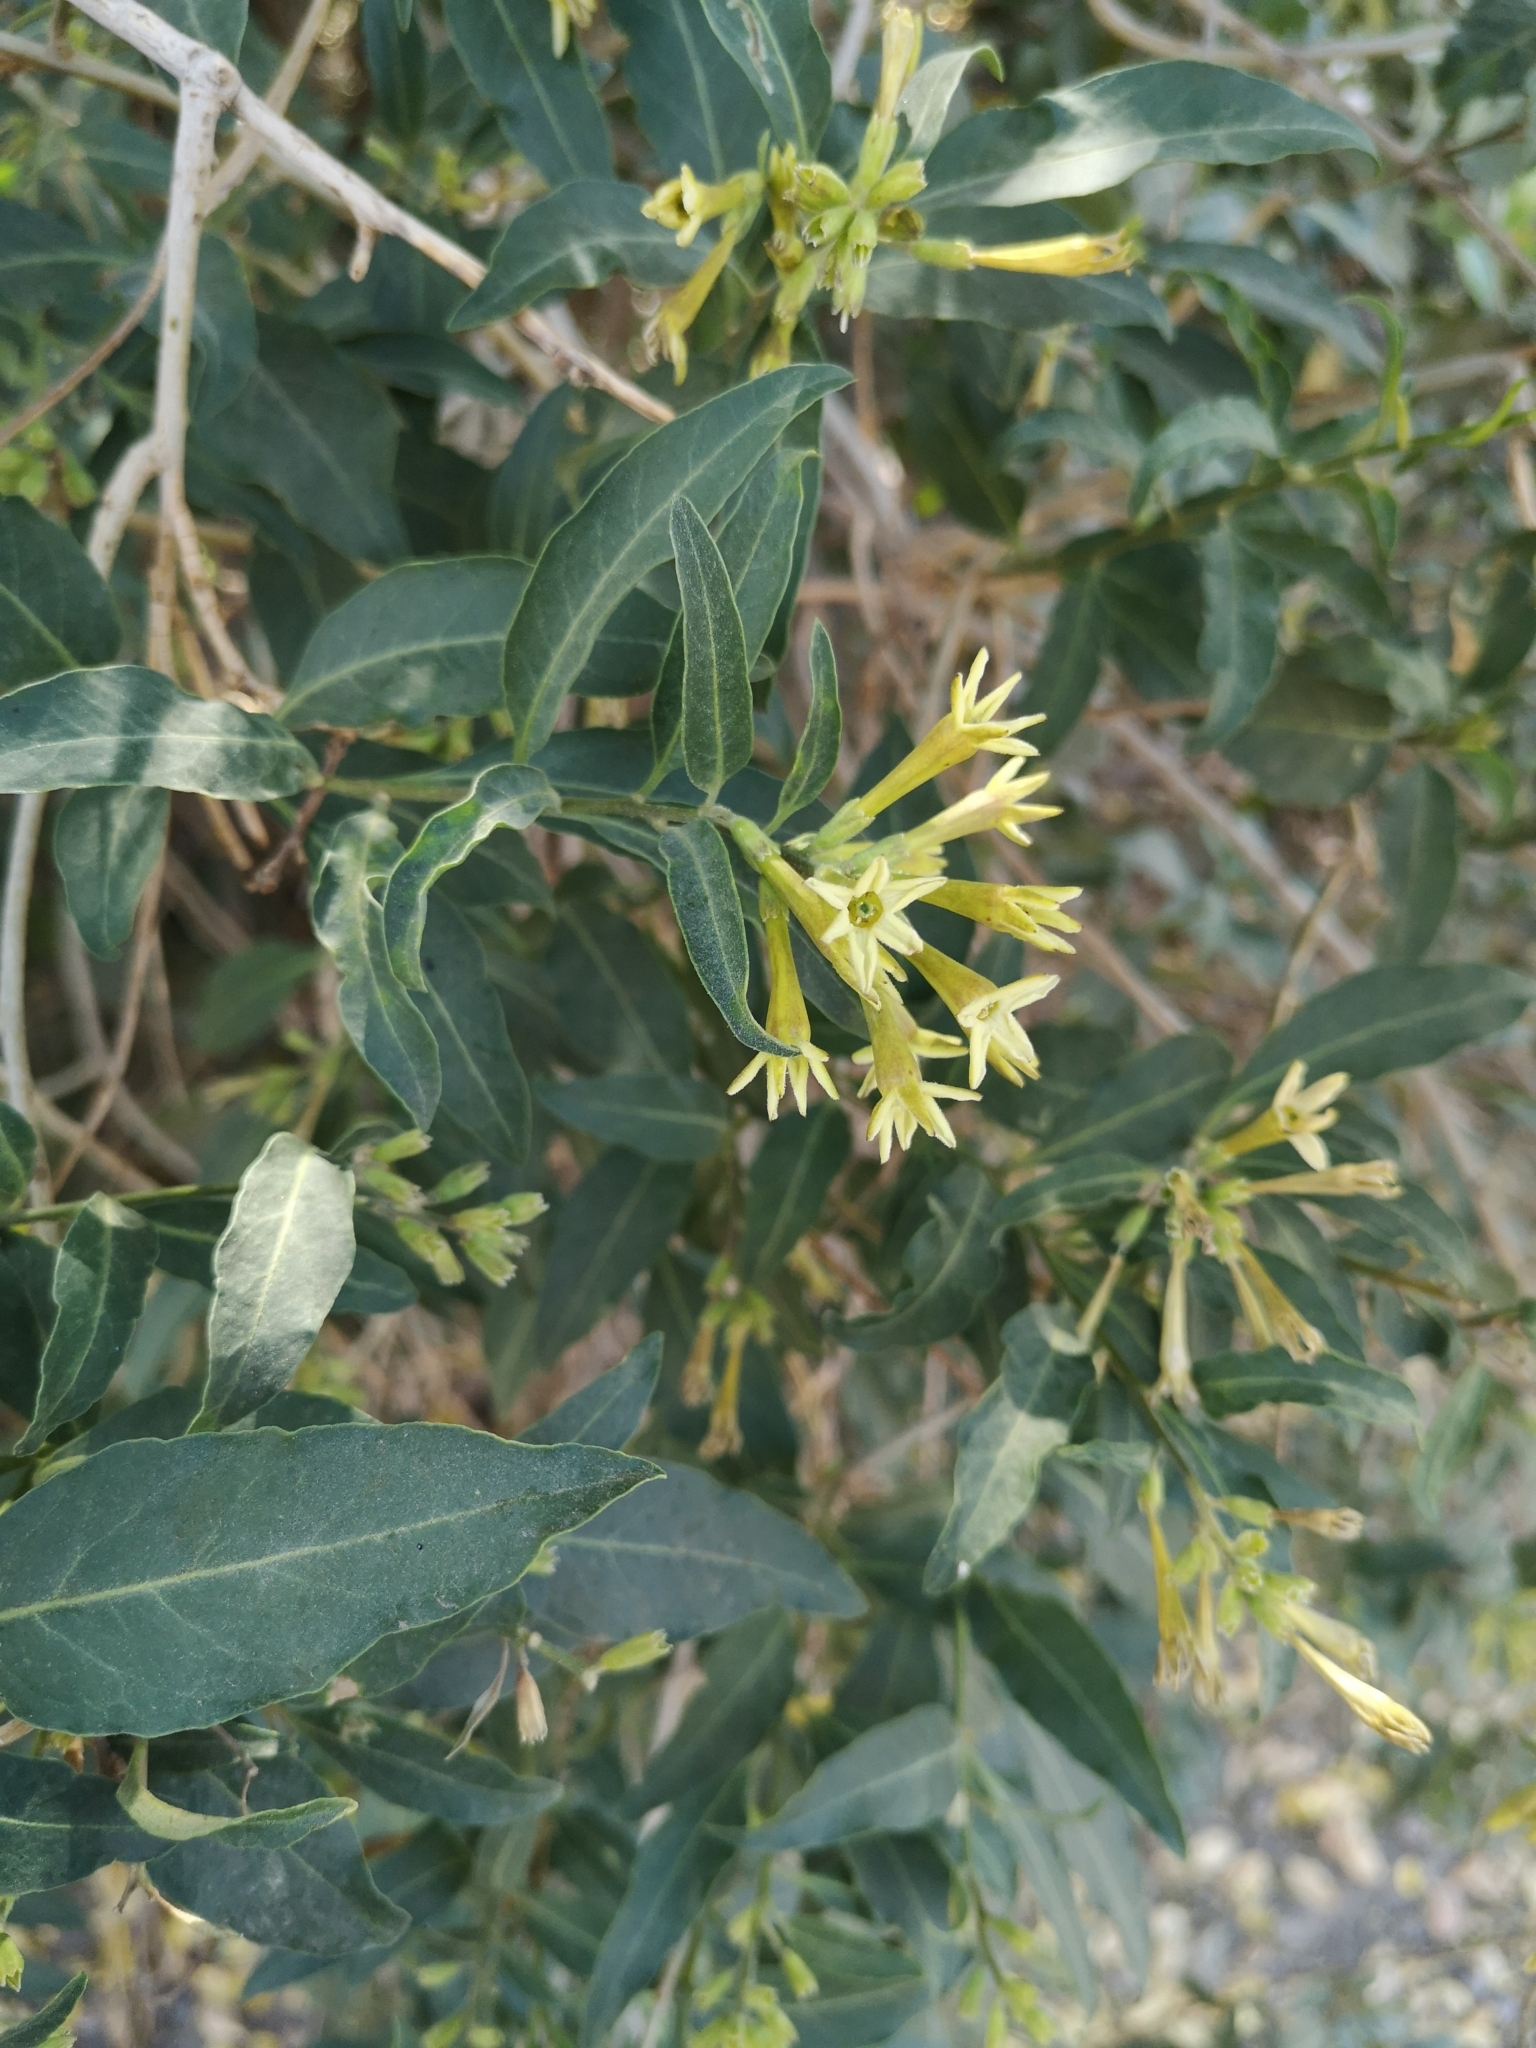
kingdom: Plantae
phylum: Tracheophyta
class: Magnoliopsida
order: Solanales
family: Solanaceae
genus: Cestrum
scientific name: Cestrum parqui
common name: Chilean cestrum
